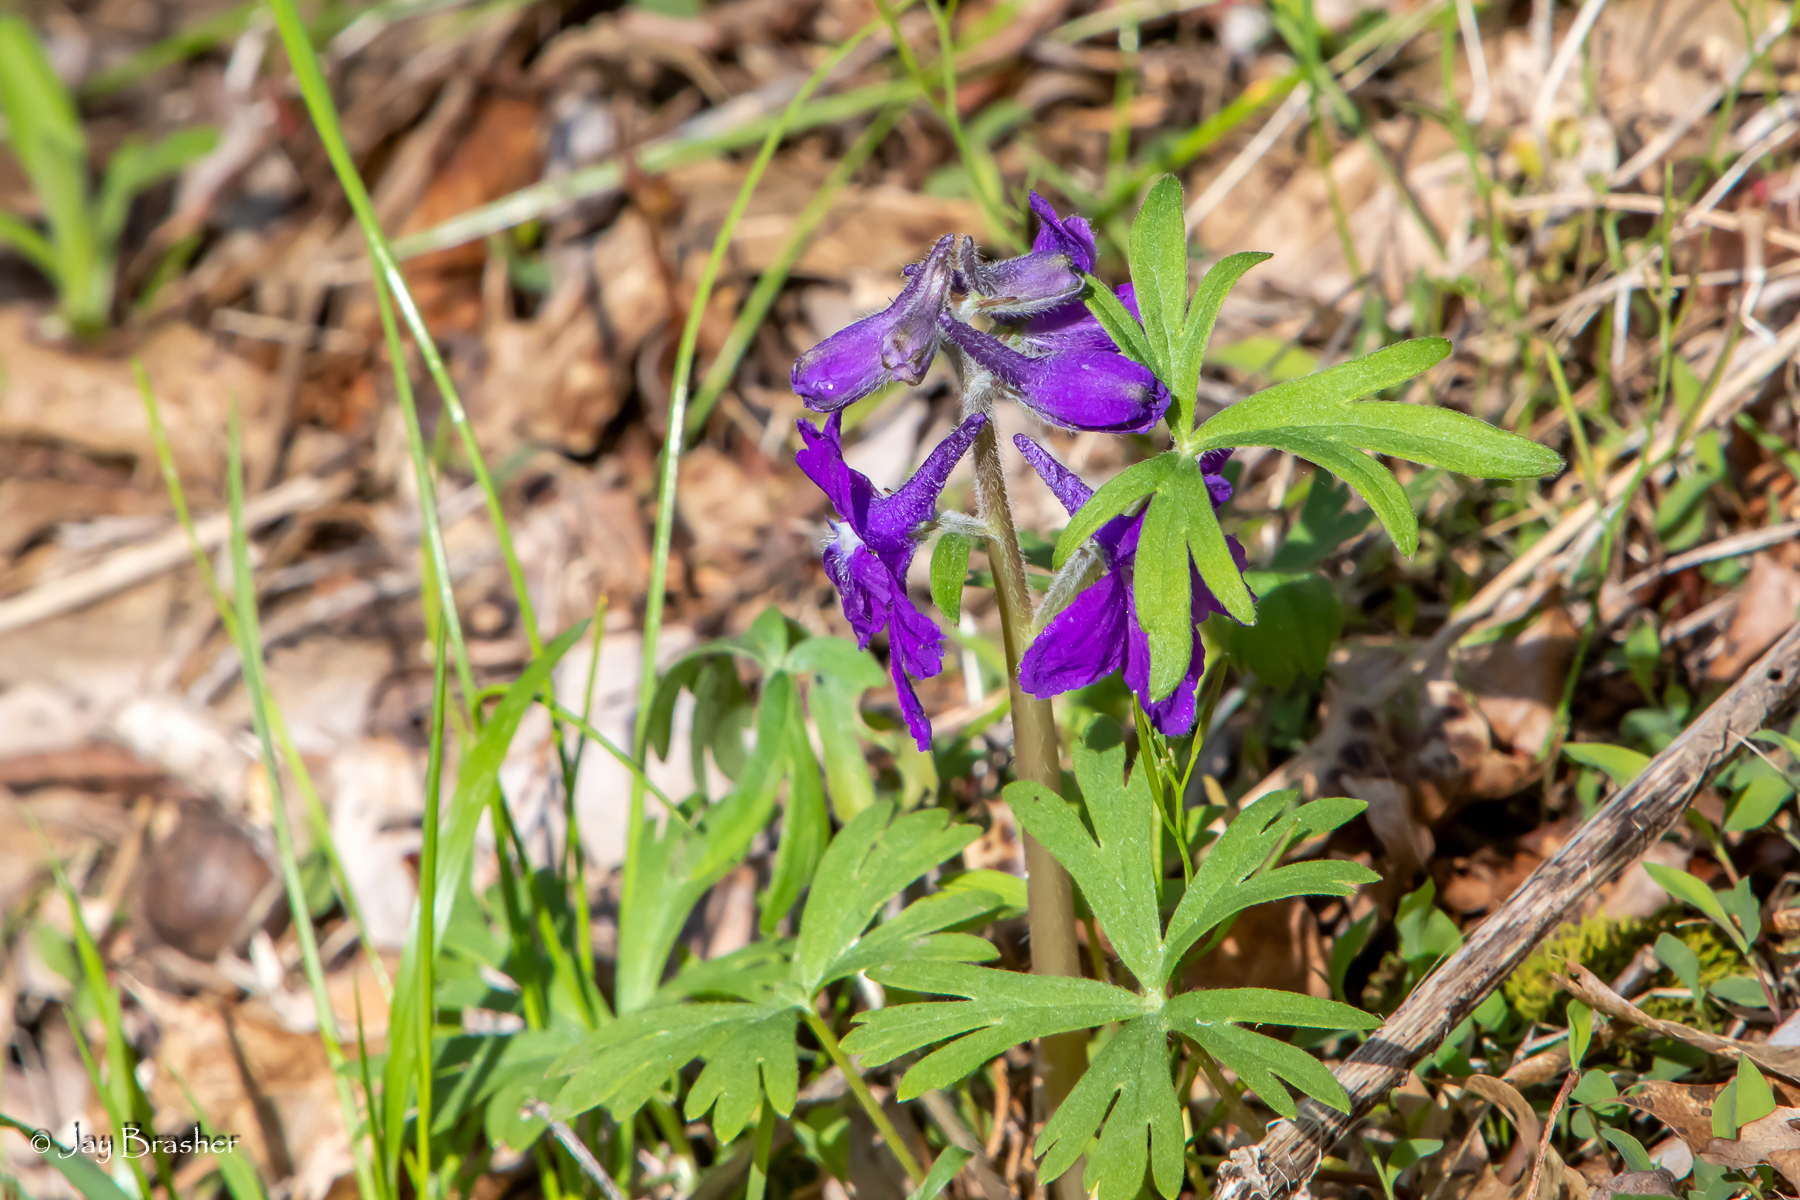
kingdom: Plantae
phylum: Tracheophyta
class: Magnoliopsida
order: Ranunculales
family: Ranunculaceae
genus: Delphinium
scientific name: Delphinium tricorne
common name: Dwarf larkspur
